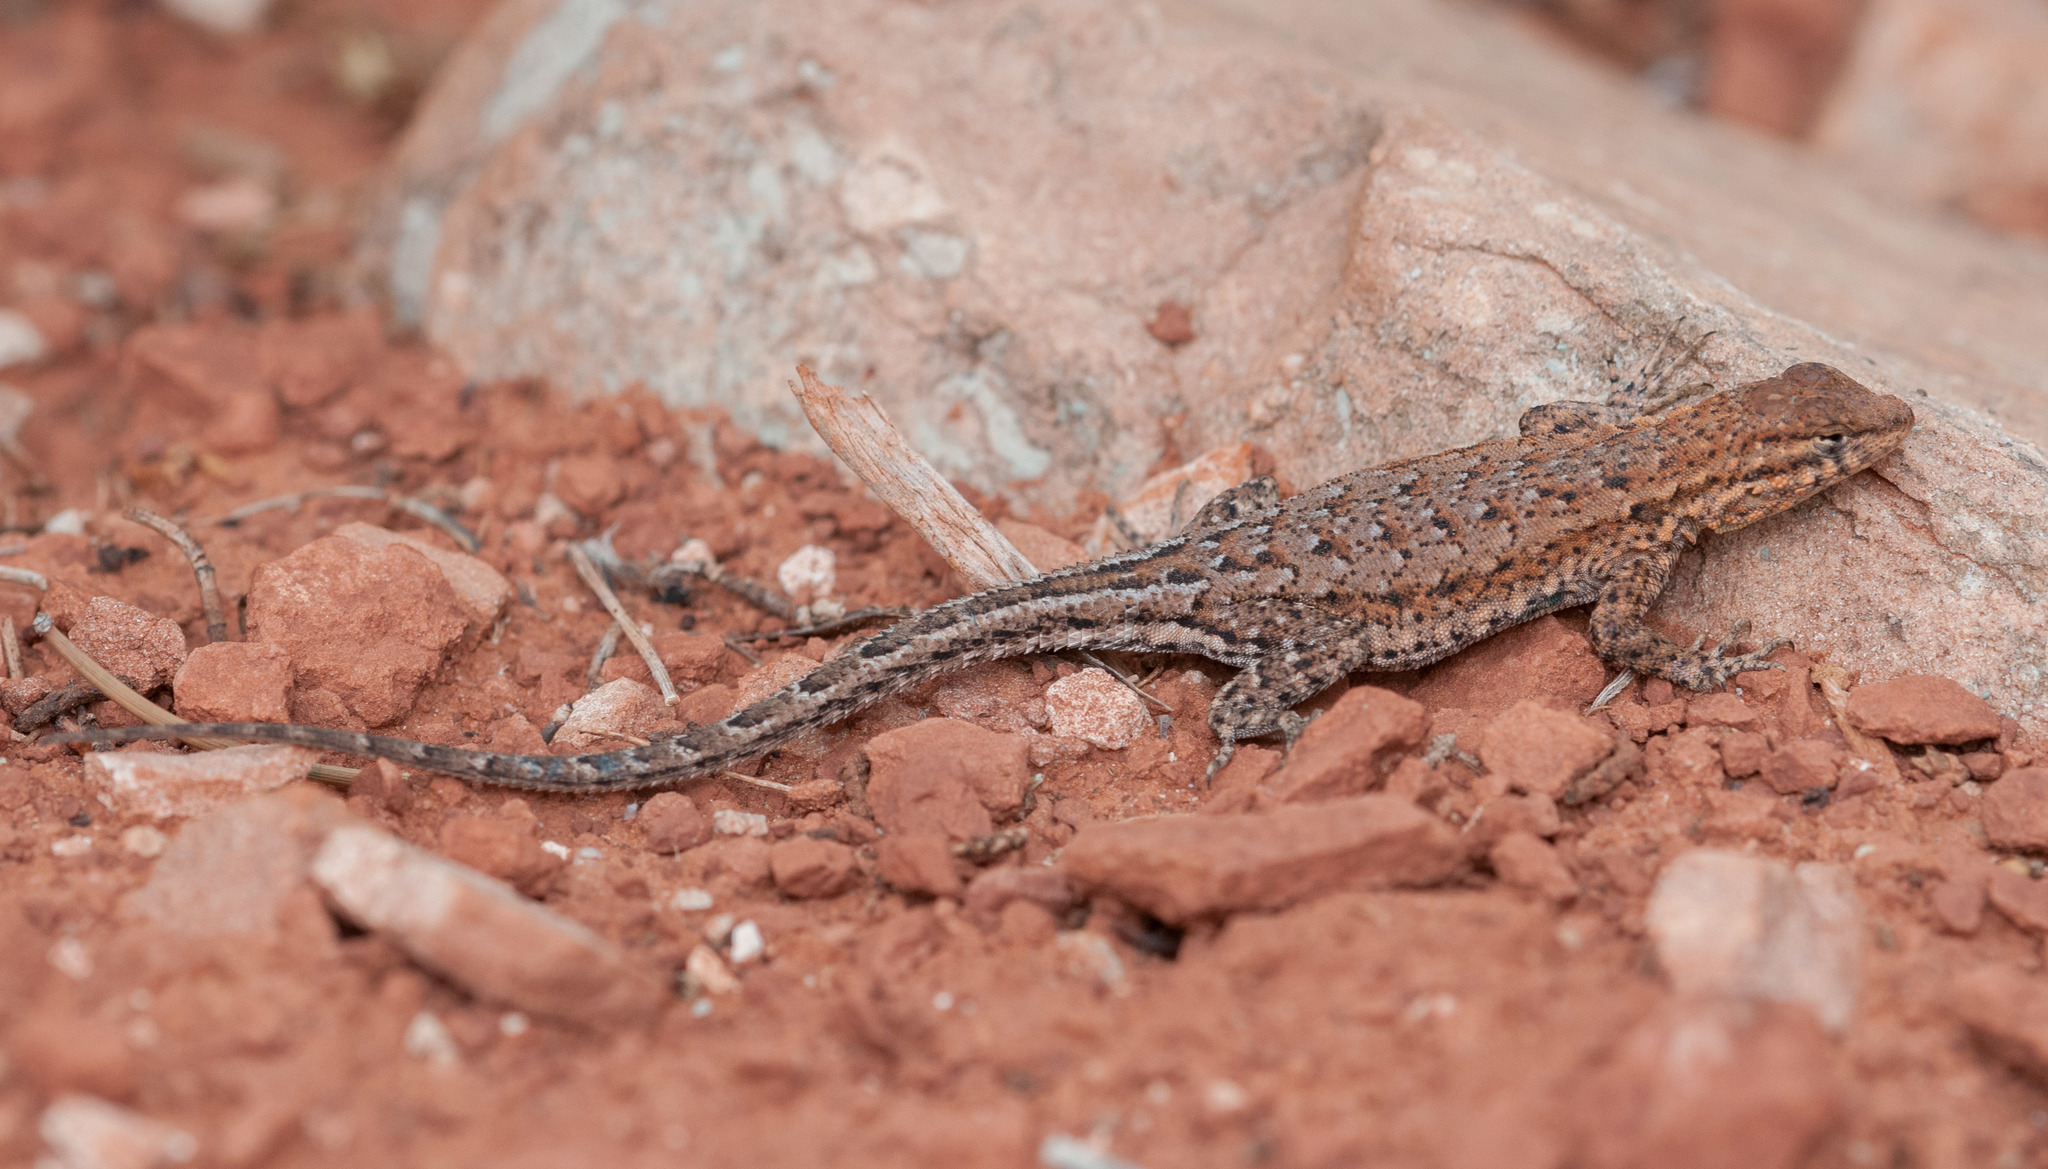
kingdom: Animalia
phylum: Chordata
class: Squamata
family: Phrynosomatidae
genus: Uta
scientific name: Uta stansburiana
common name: Side-blotched lizard
